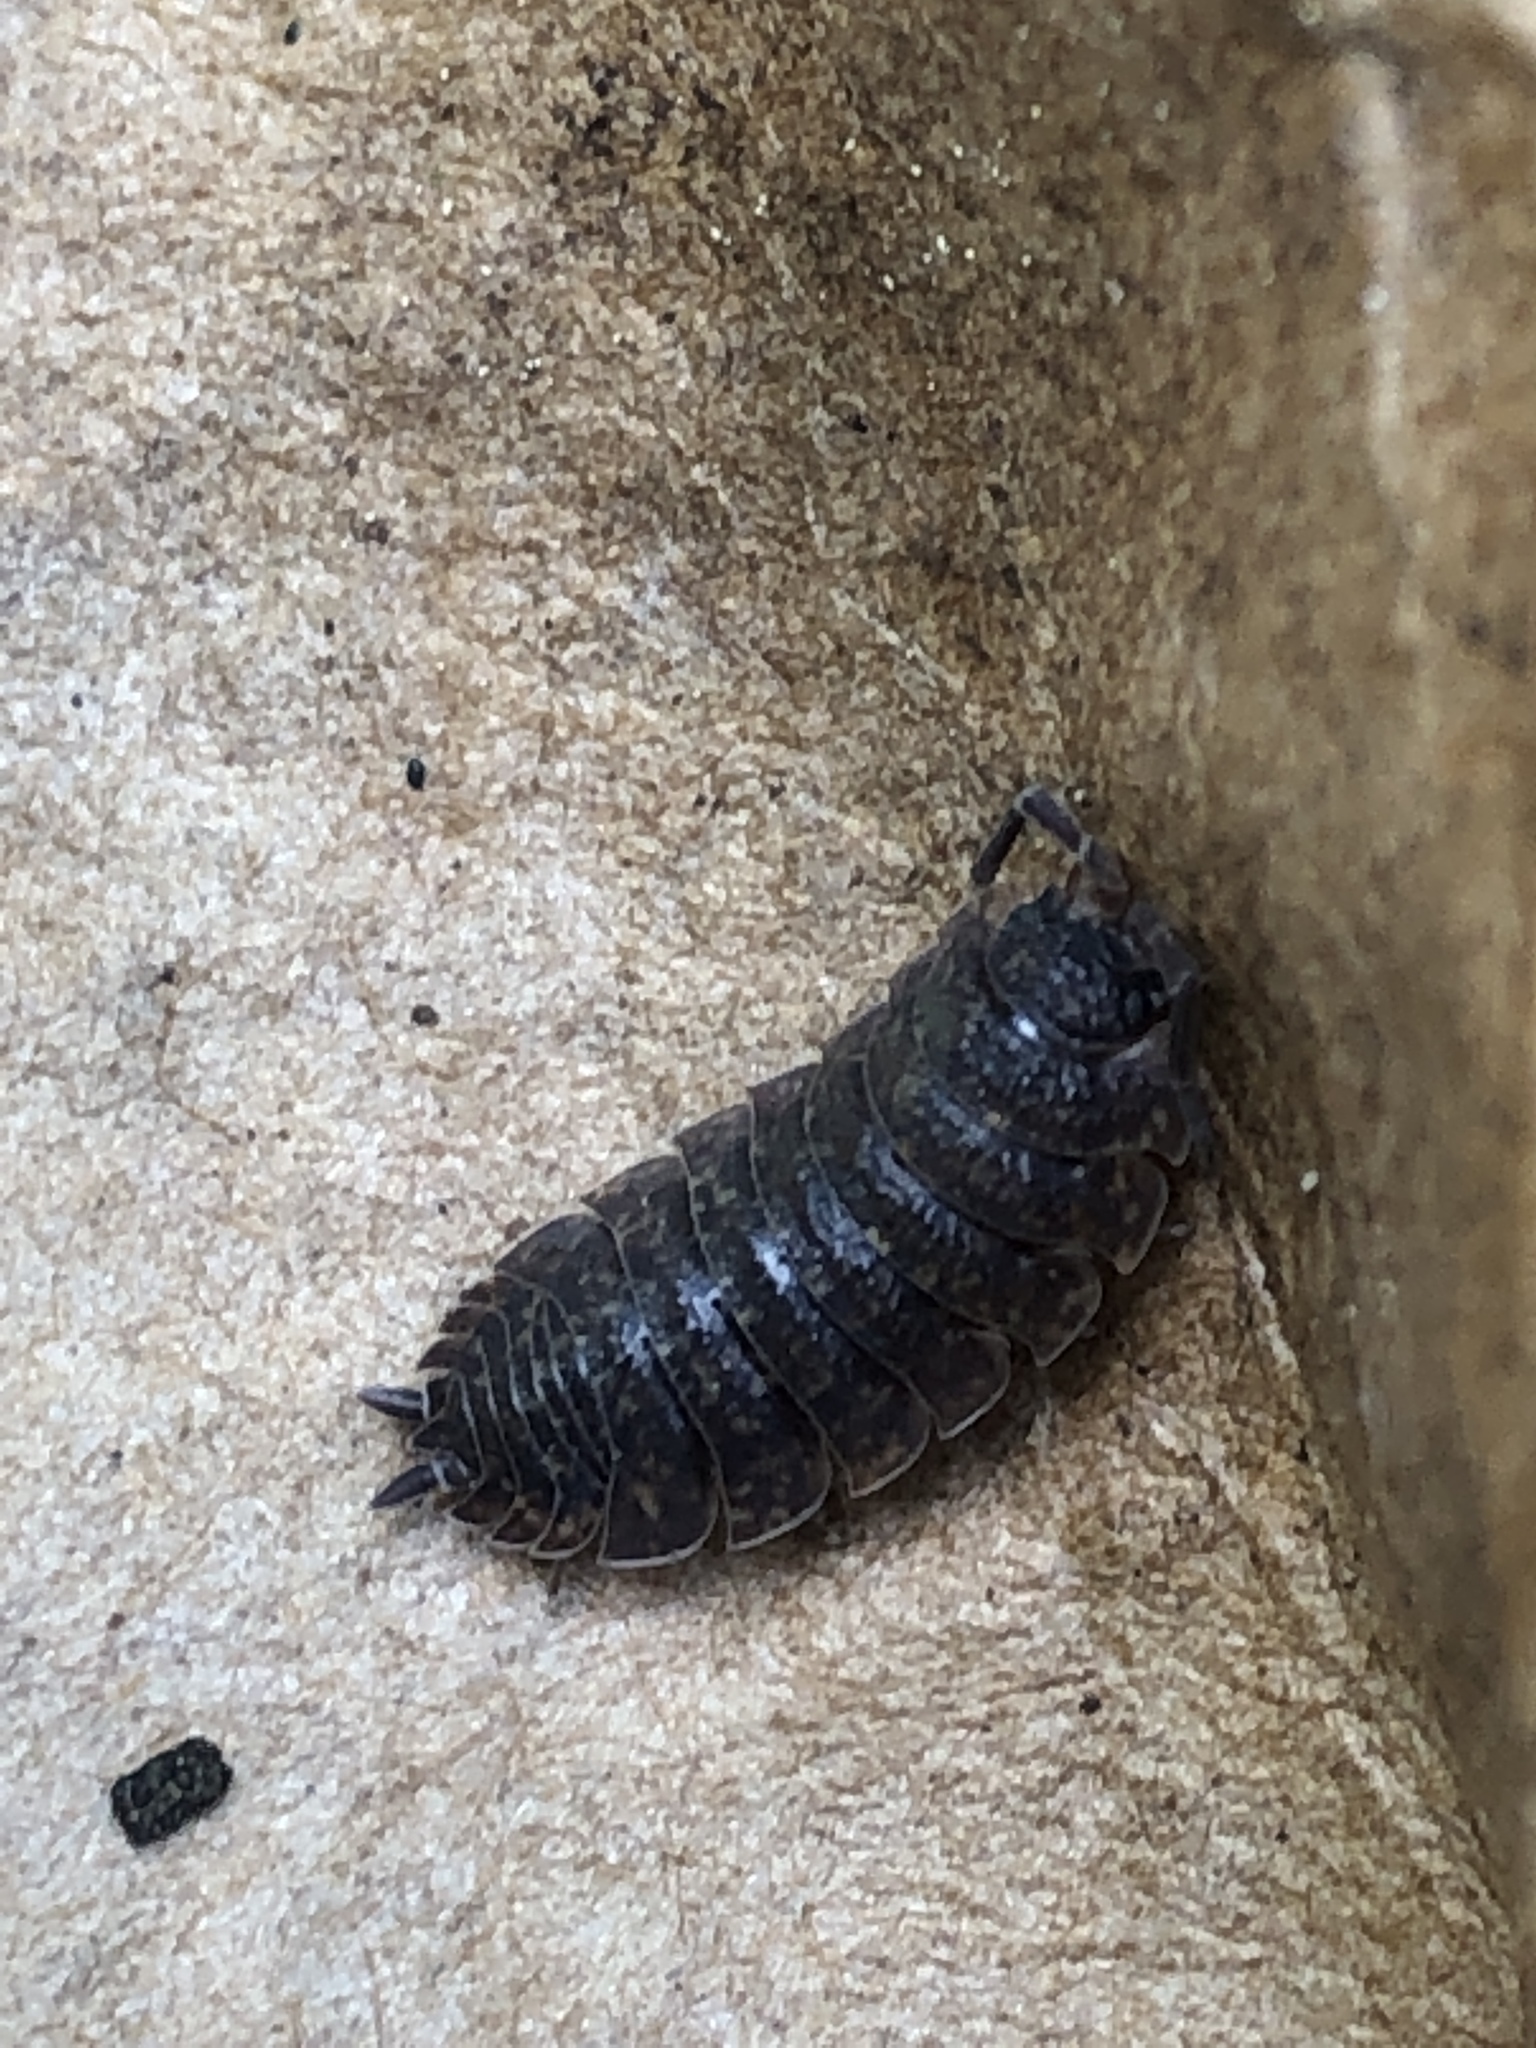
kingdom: Animalia
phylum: Arthropoda
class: Malacostraca
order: Isopoda
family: Porcellionidae
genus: Porcellio
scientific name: Porcellio scaber
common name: Common rough woodlouse
